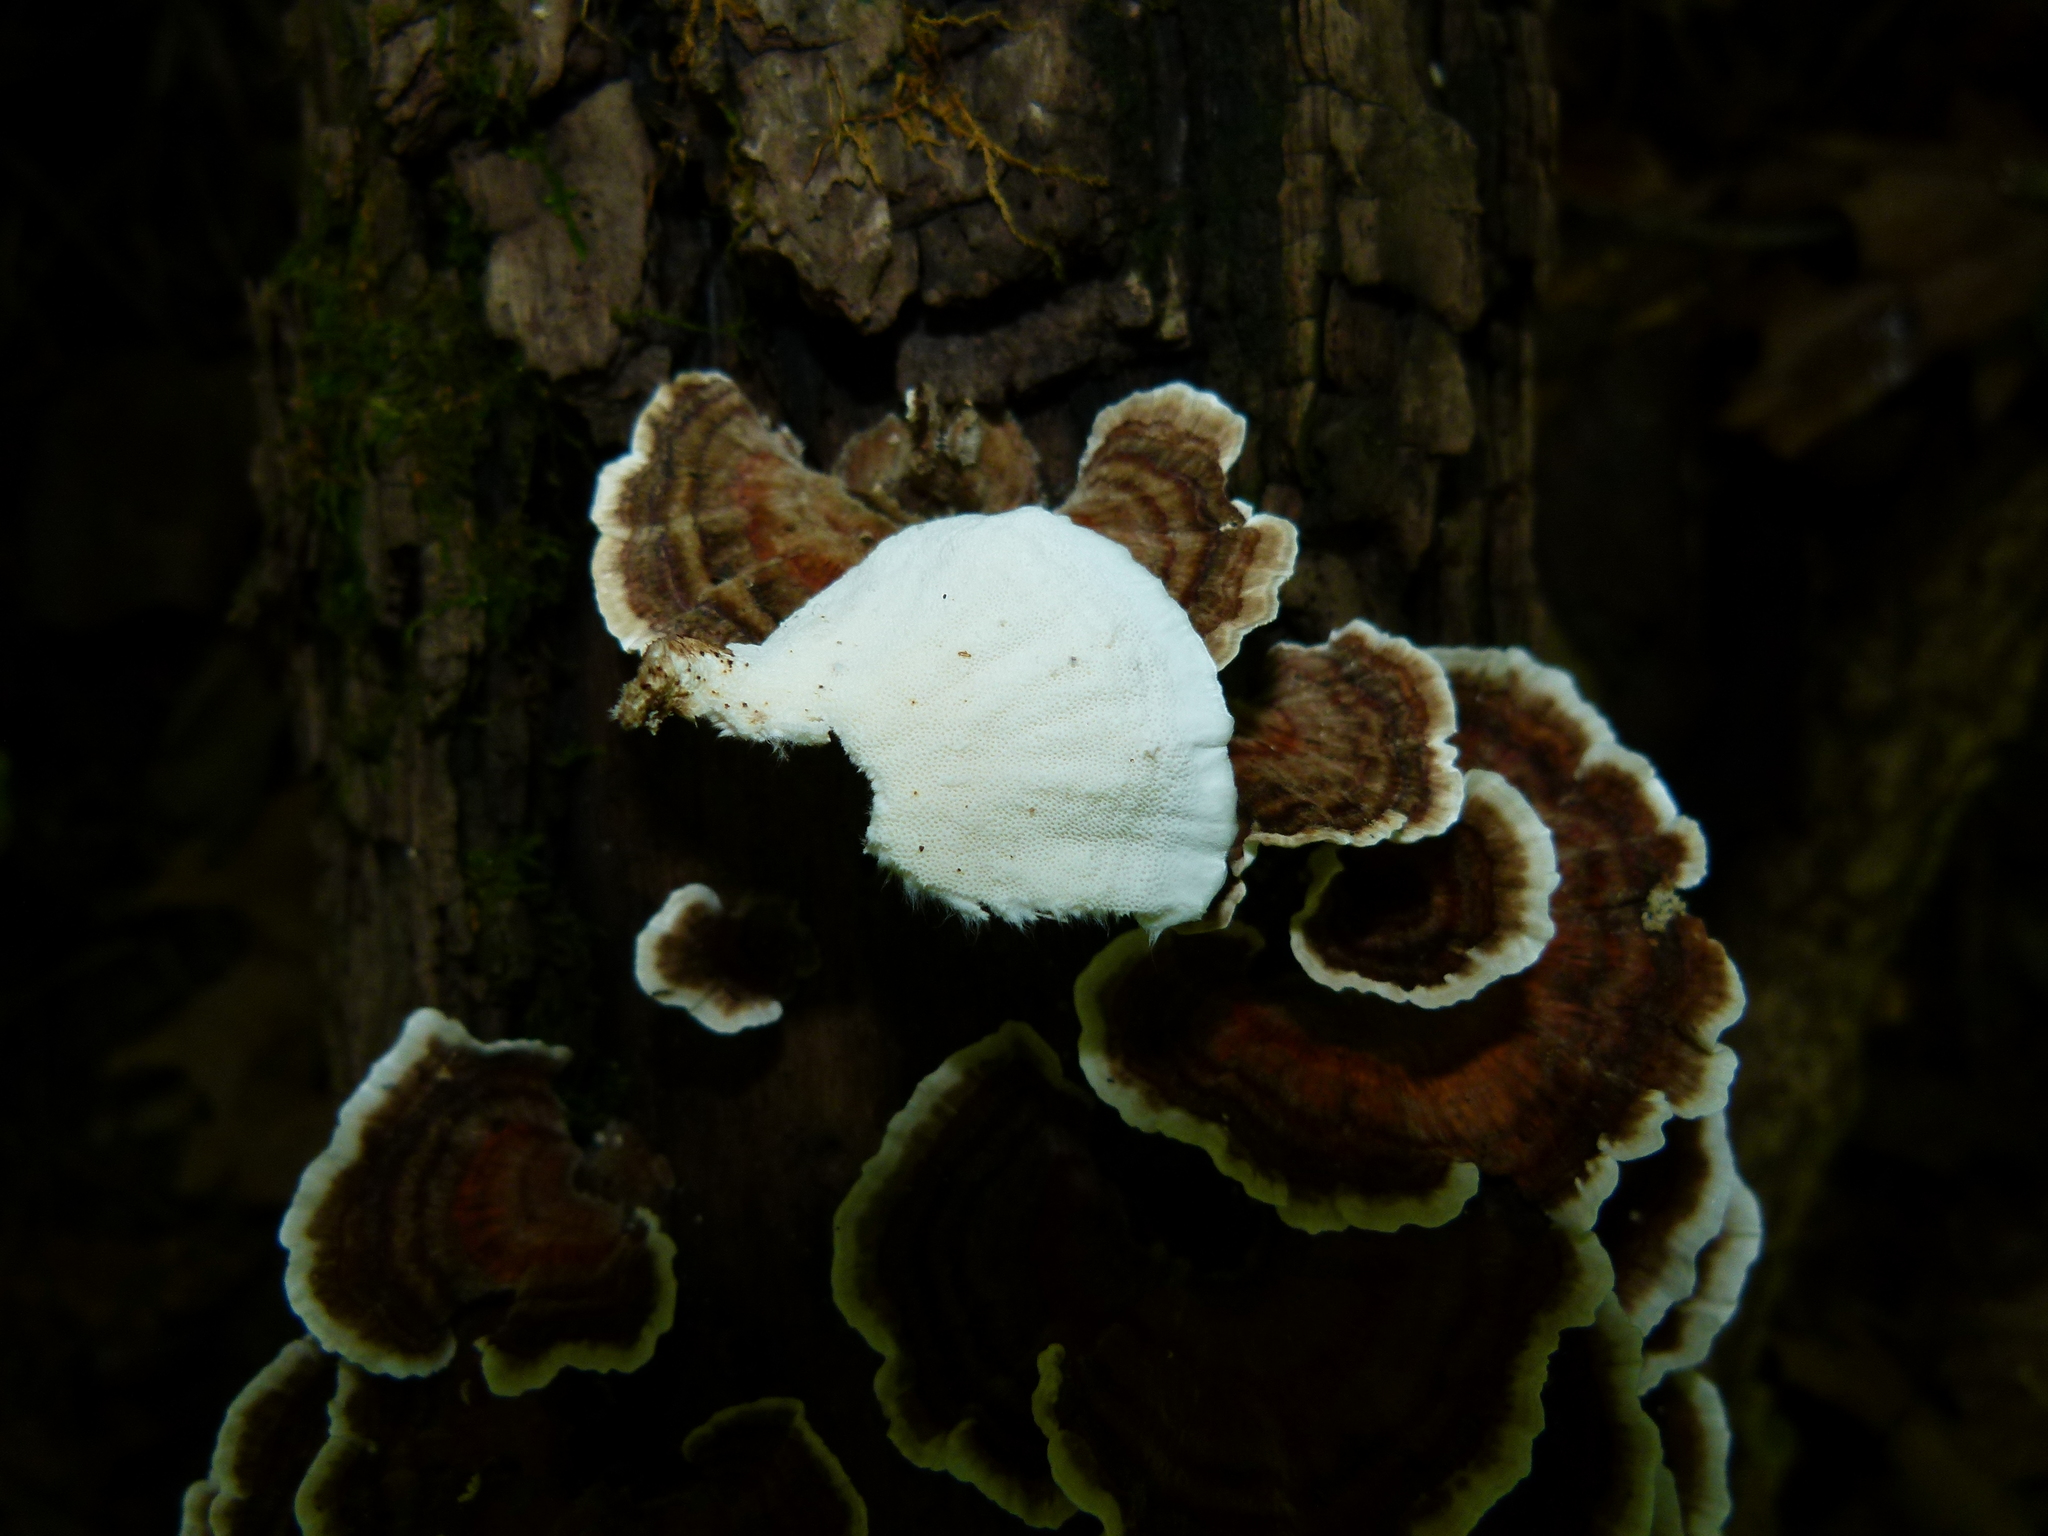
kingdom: Fungi
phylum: Basidiomycota
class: Agaricomycetes
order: Polyporales
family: Polyporaceae
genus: Trametes
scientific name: Trametes versicolor
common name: Turkeytail
